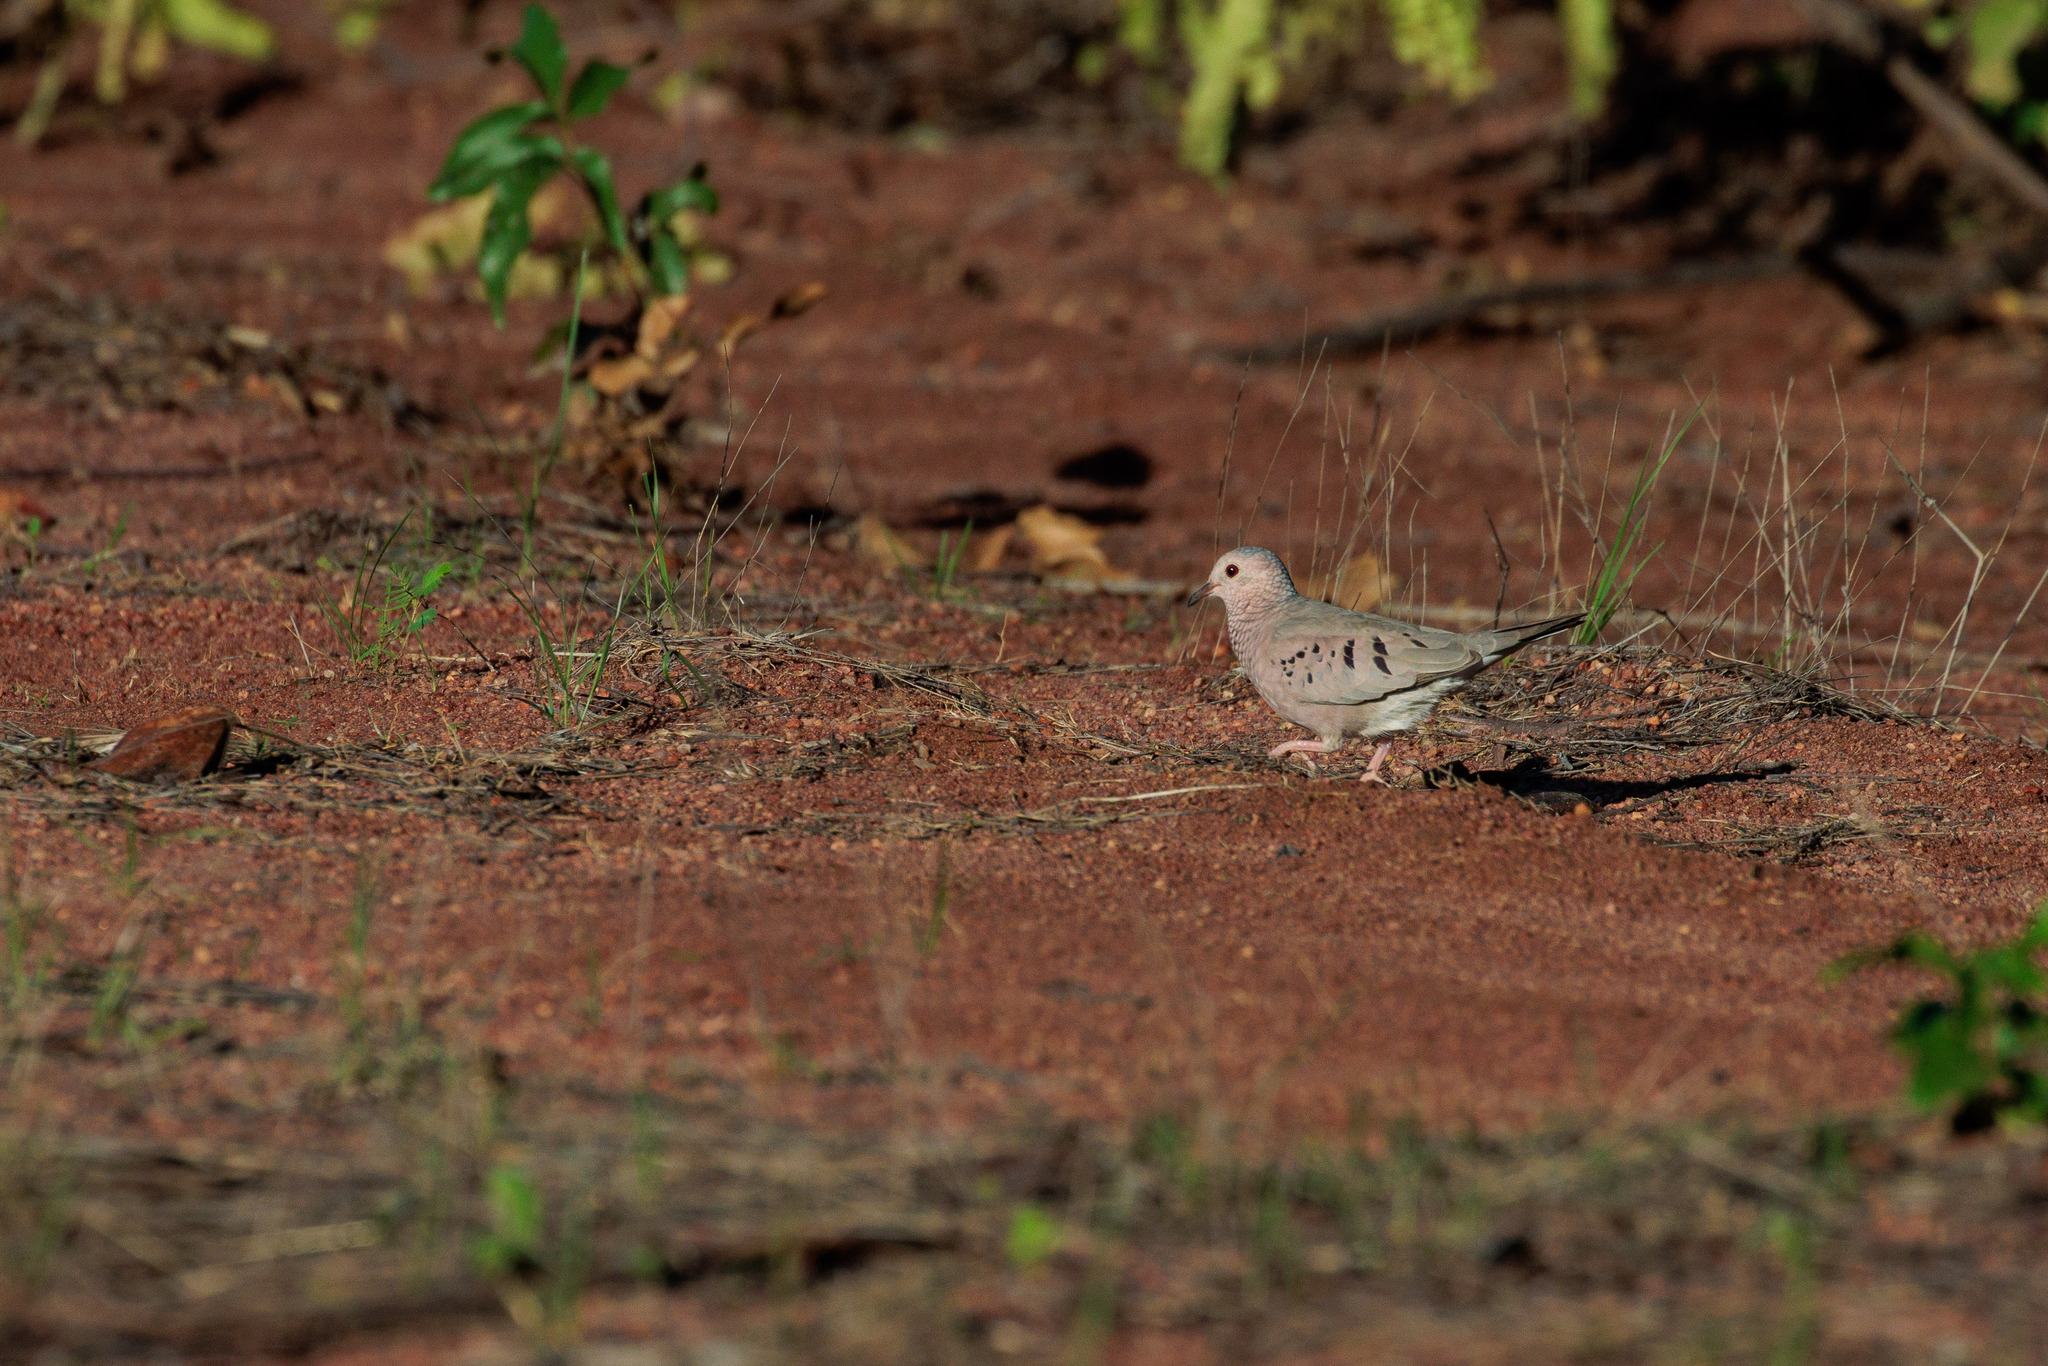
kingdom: Animalia
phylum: Chordata
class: Aves
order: Columbiformes
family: Columbidae
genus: Columbina
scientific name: Columbina passerina
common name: Common ground-dove
